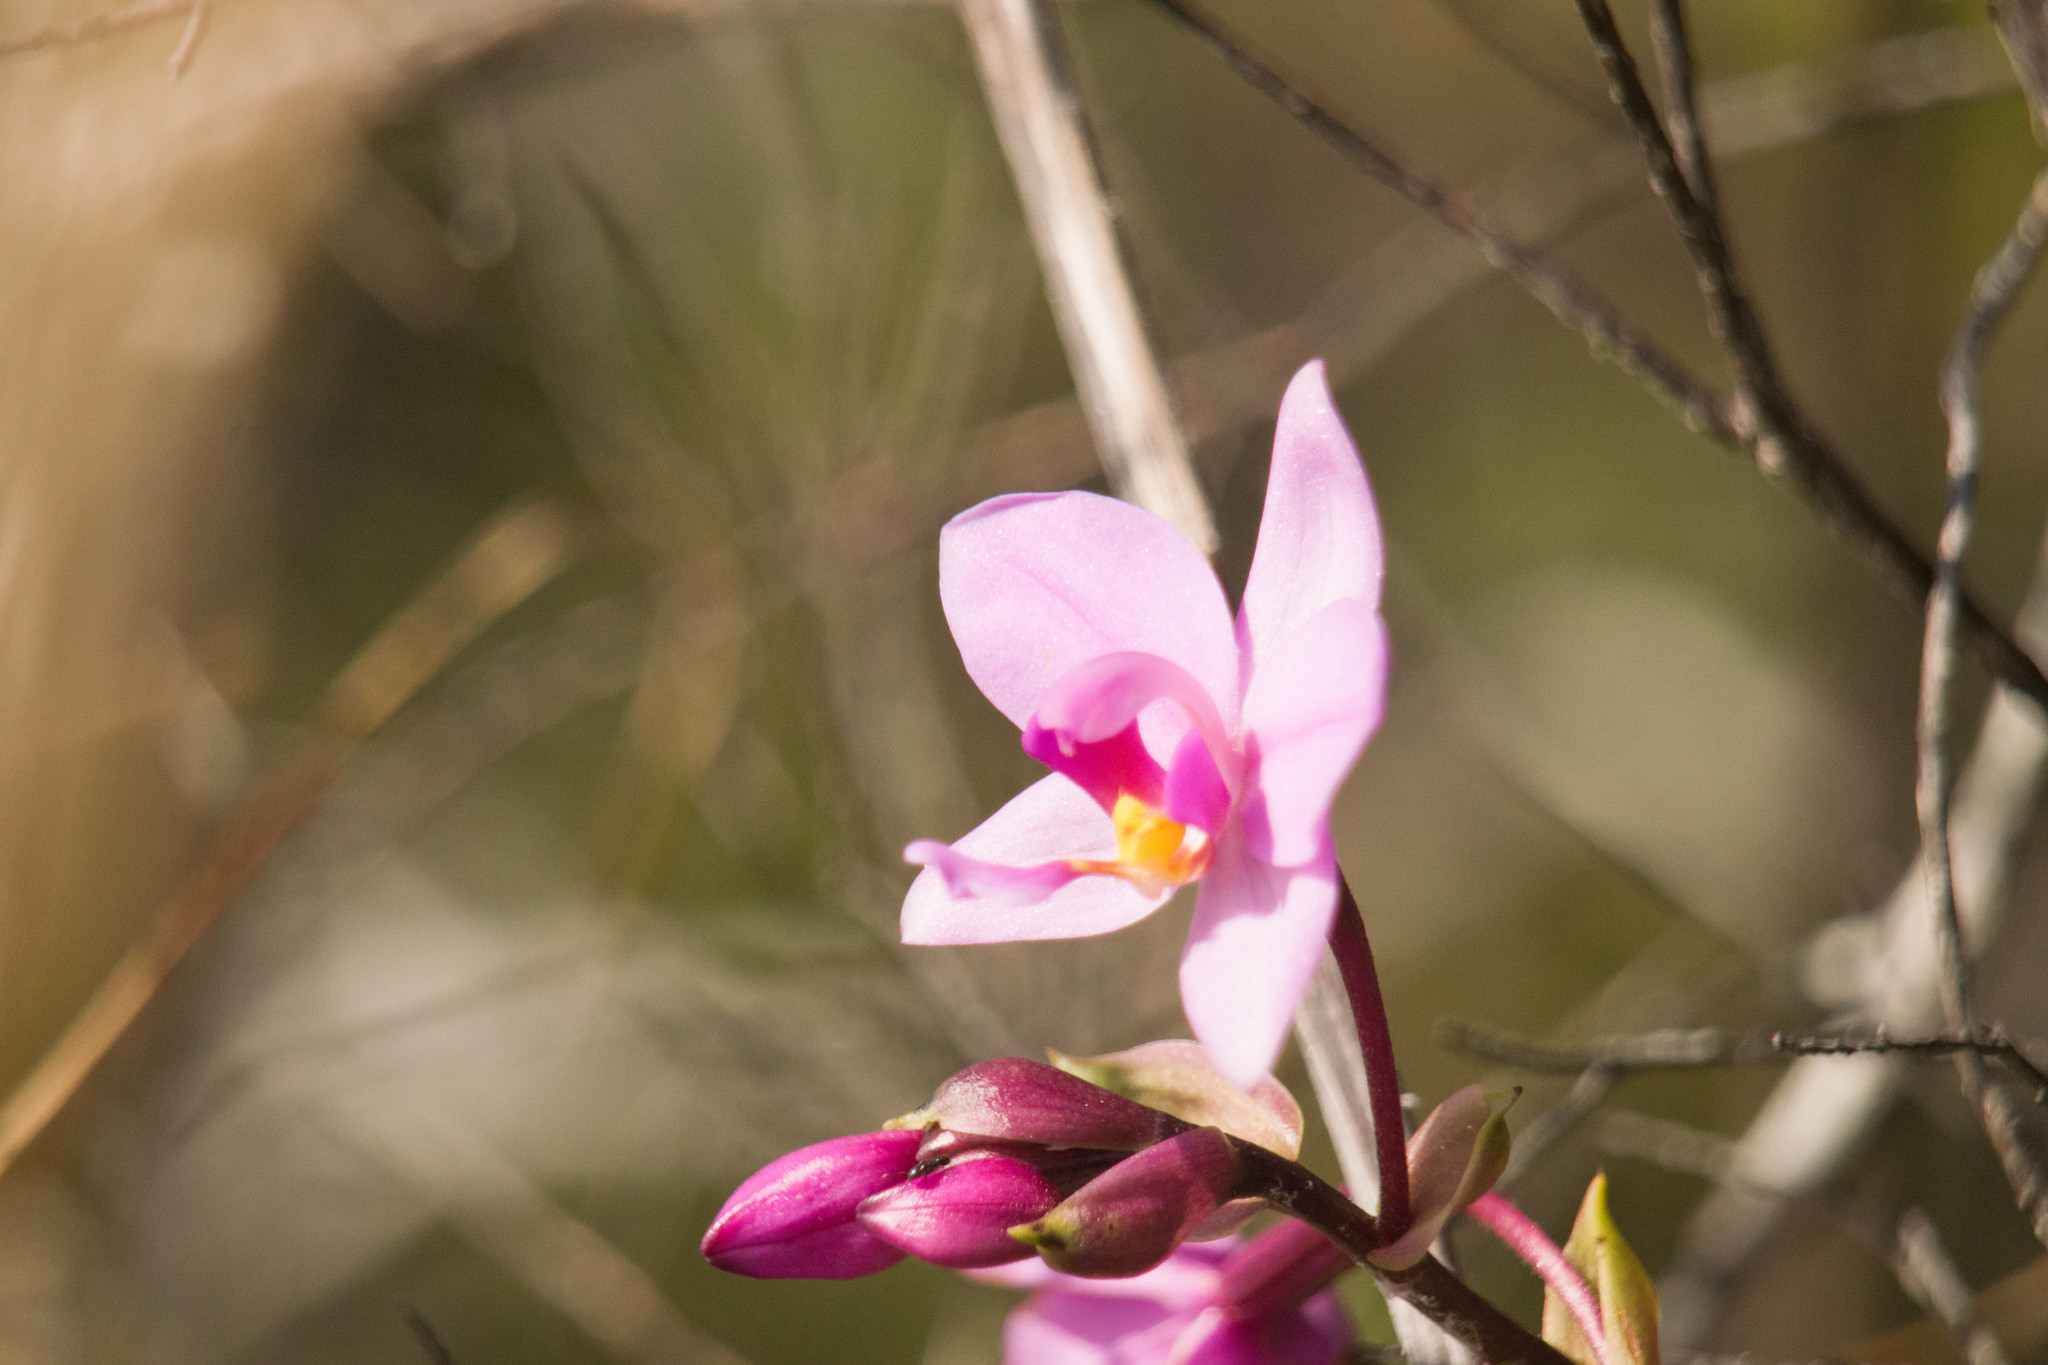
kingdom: Plantae
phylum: Tracheophyta
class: Liliopsida
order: Asparagales
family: Orchidaceae
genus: Spathoglottis
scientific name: Spathoglottis plicata
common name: Philippine ground orchid
